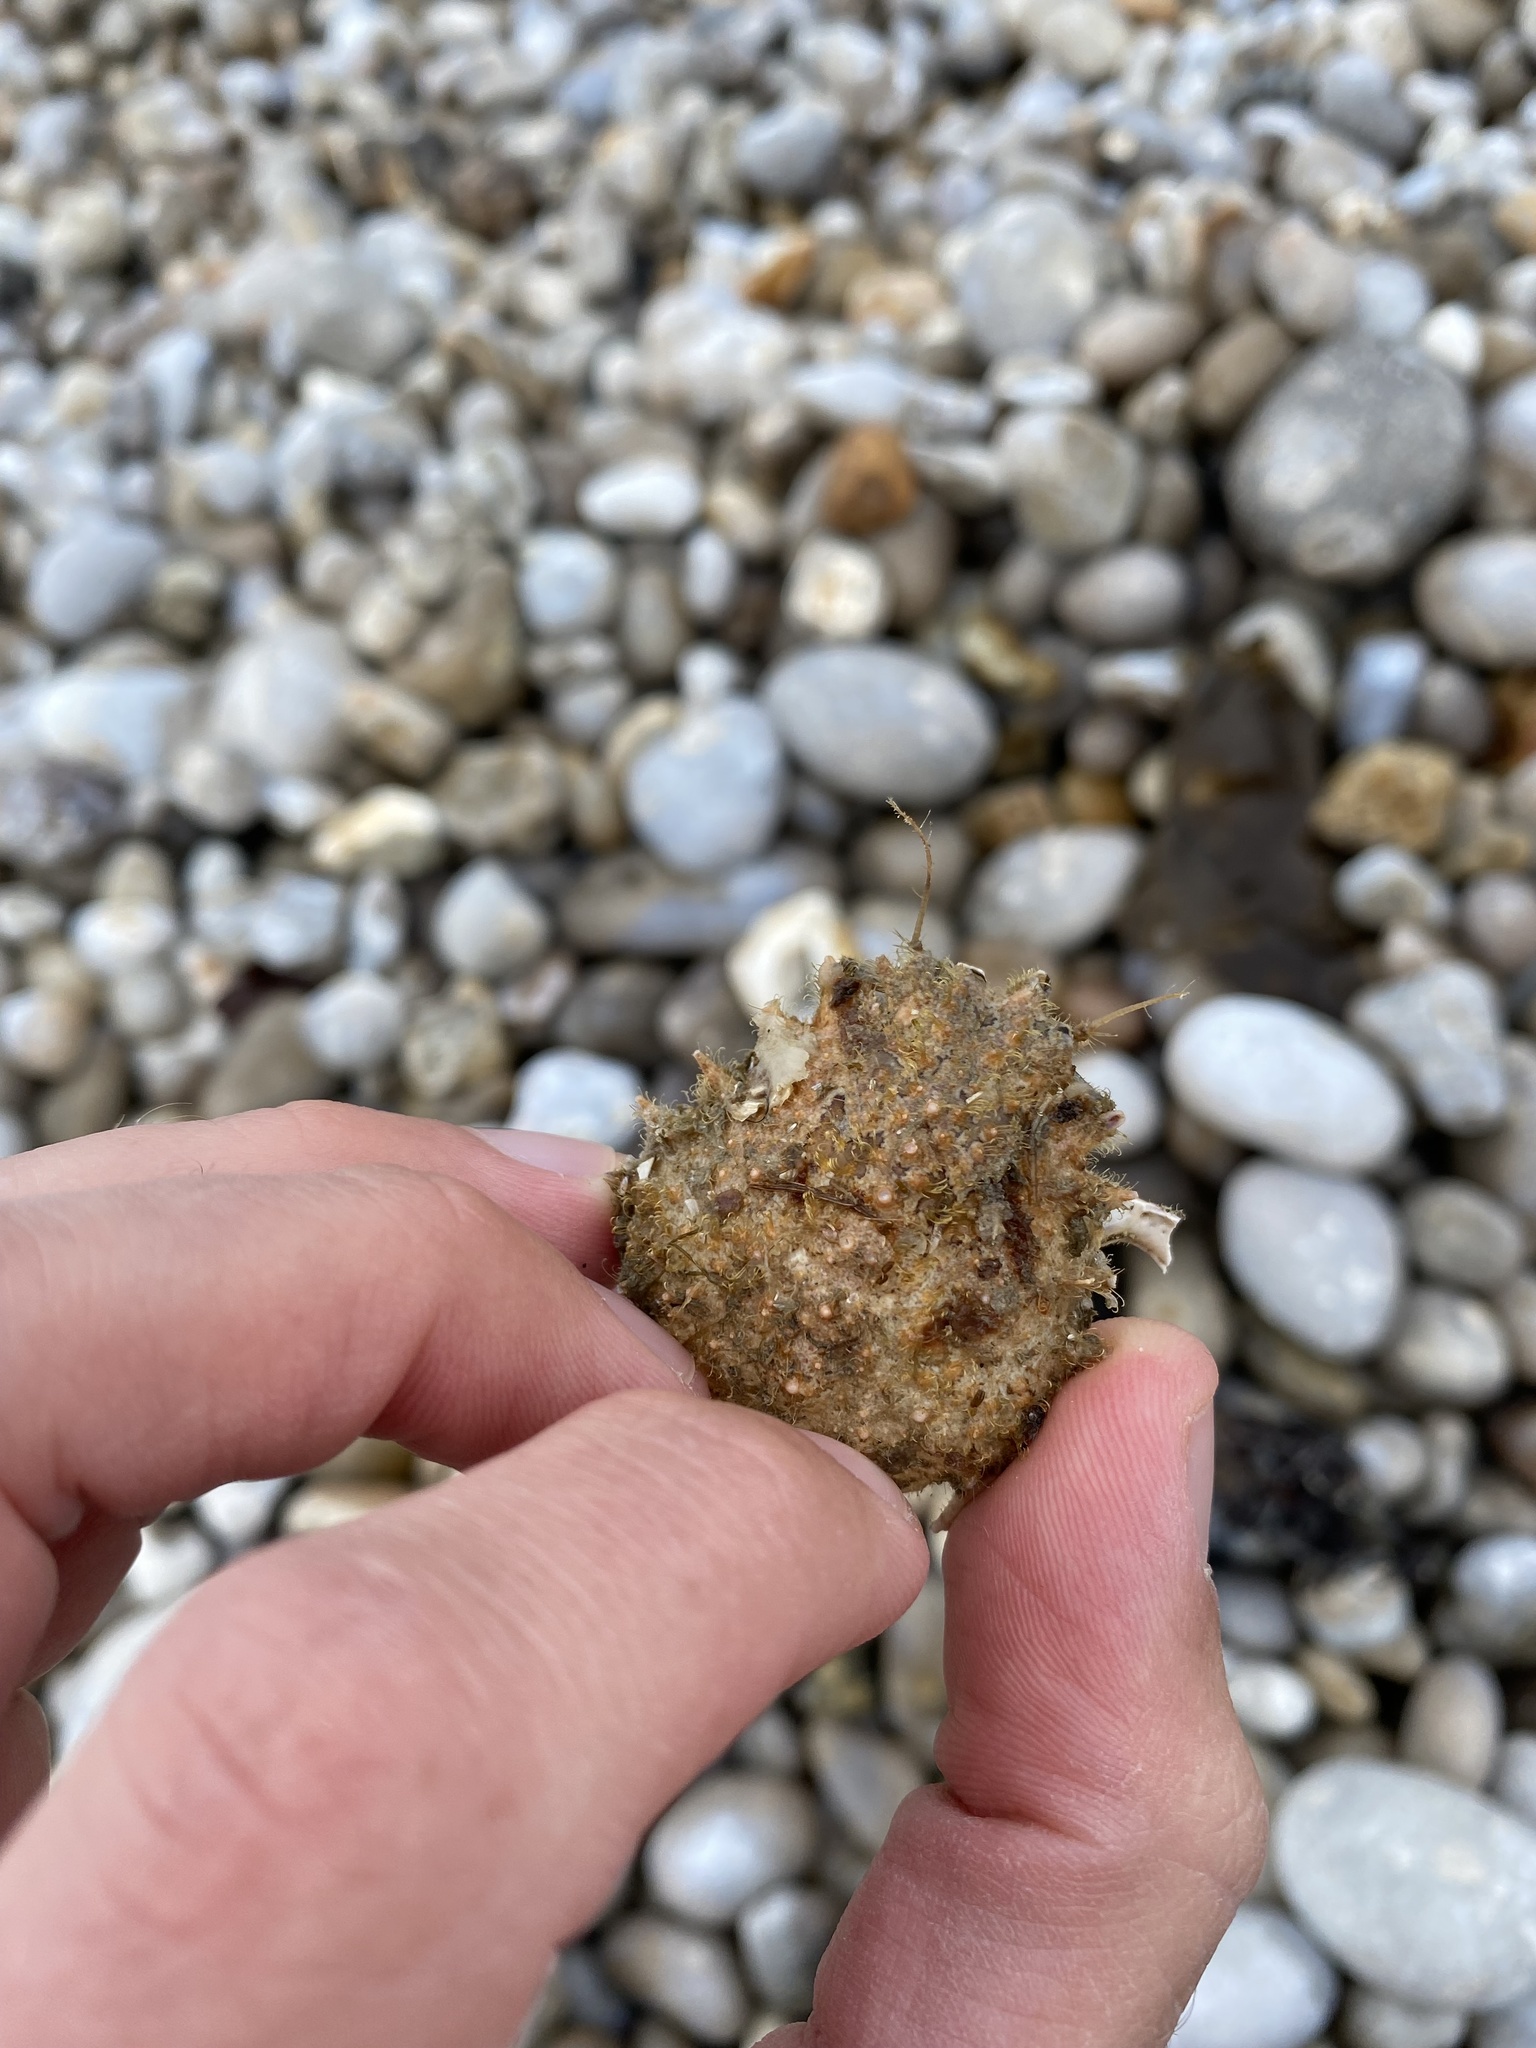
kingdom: Animalia
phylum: Arthropoda
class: Malacostraca
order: Decapoda
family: Majidae
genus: Maja
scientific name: Maja brachydactyla
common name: Common spider crab
